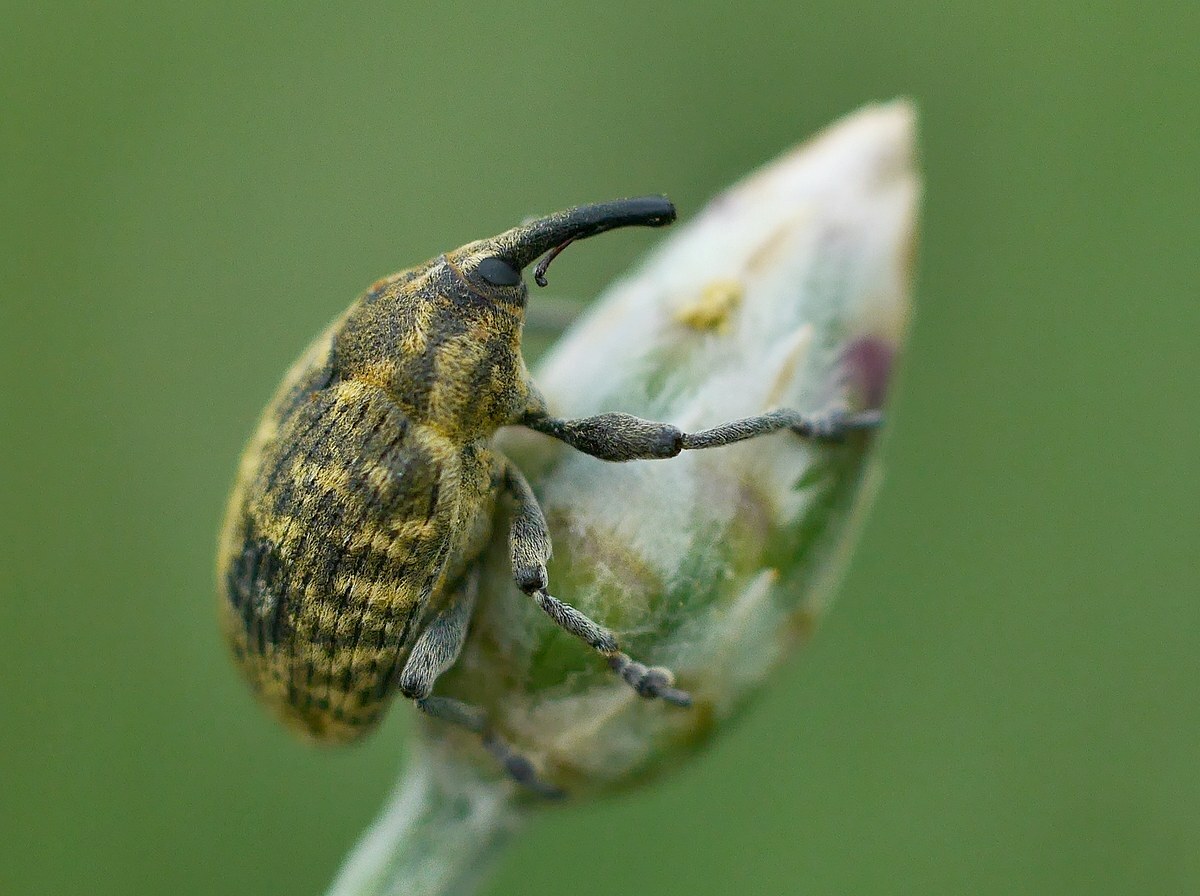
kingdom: Animalia
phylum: Arthropoda
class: Insecta
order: Coleoptera
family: Curculionidae
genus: Larinus
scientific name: Larinus centaurii
